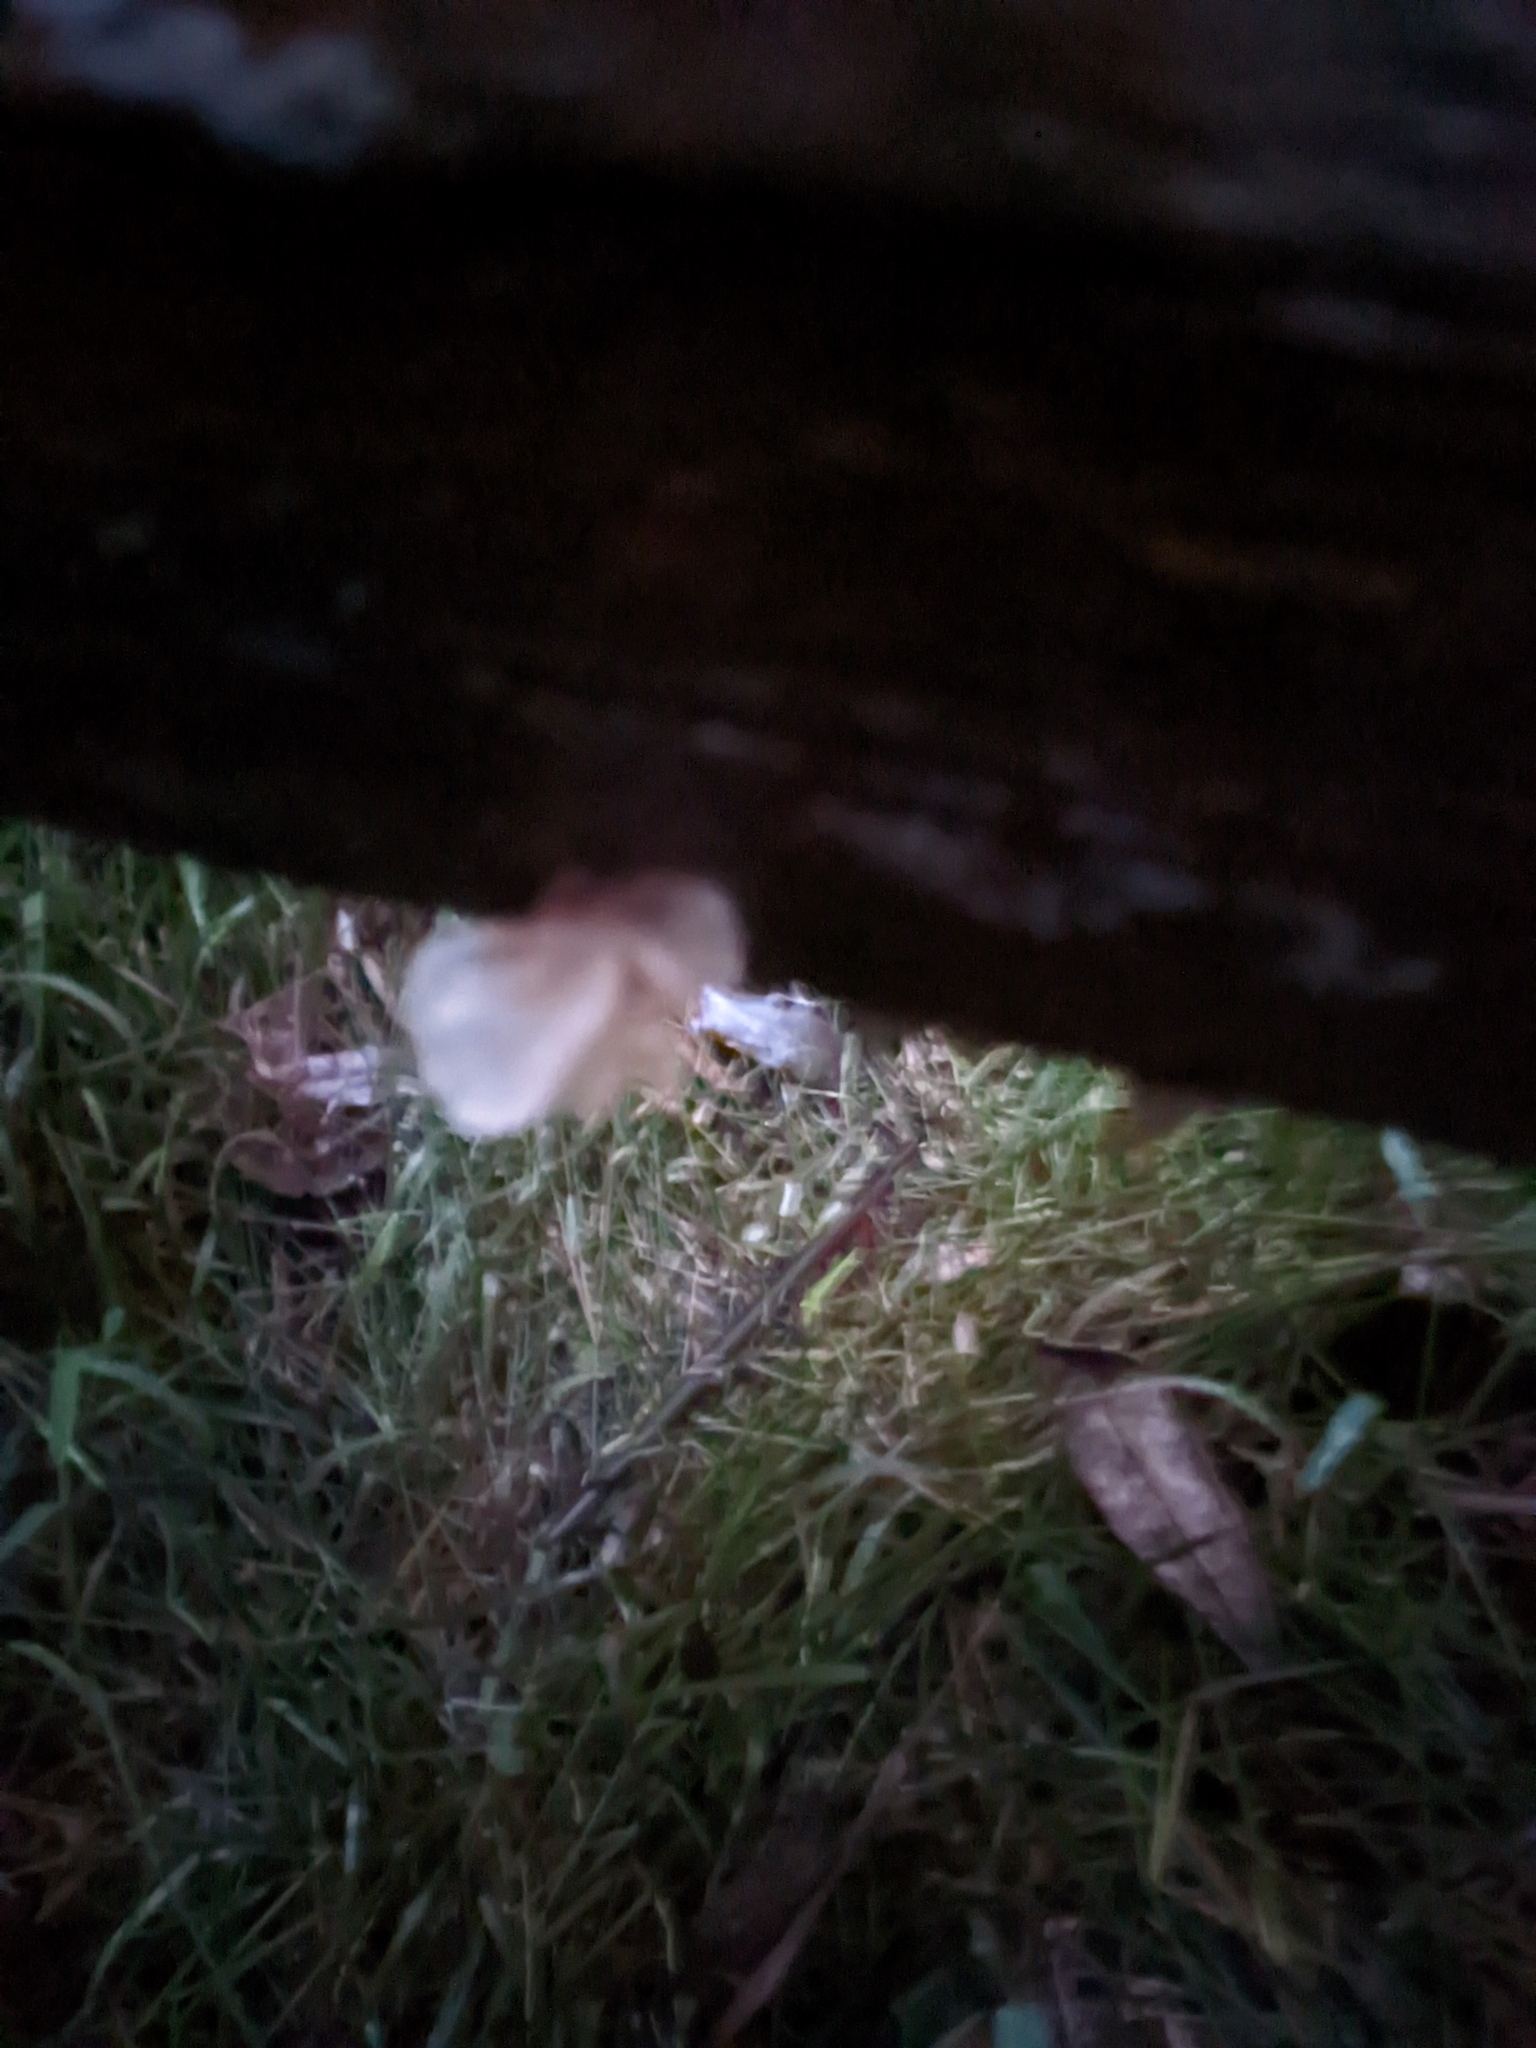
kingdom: Fungi
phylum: Basidiomycota
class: Tremellomycetes
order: Tremellales
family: Tremellaceae
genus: Tremella
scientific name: Tremella fuciformis
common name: Snow fungus
